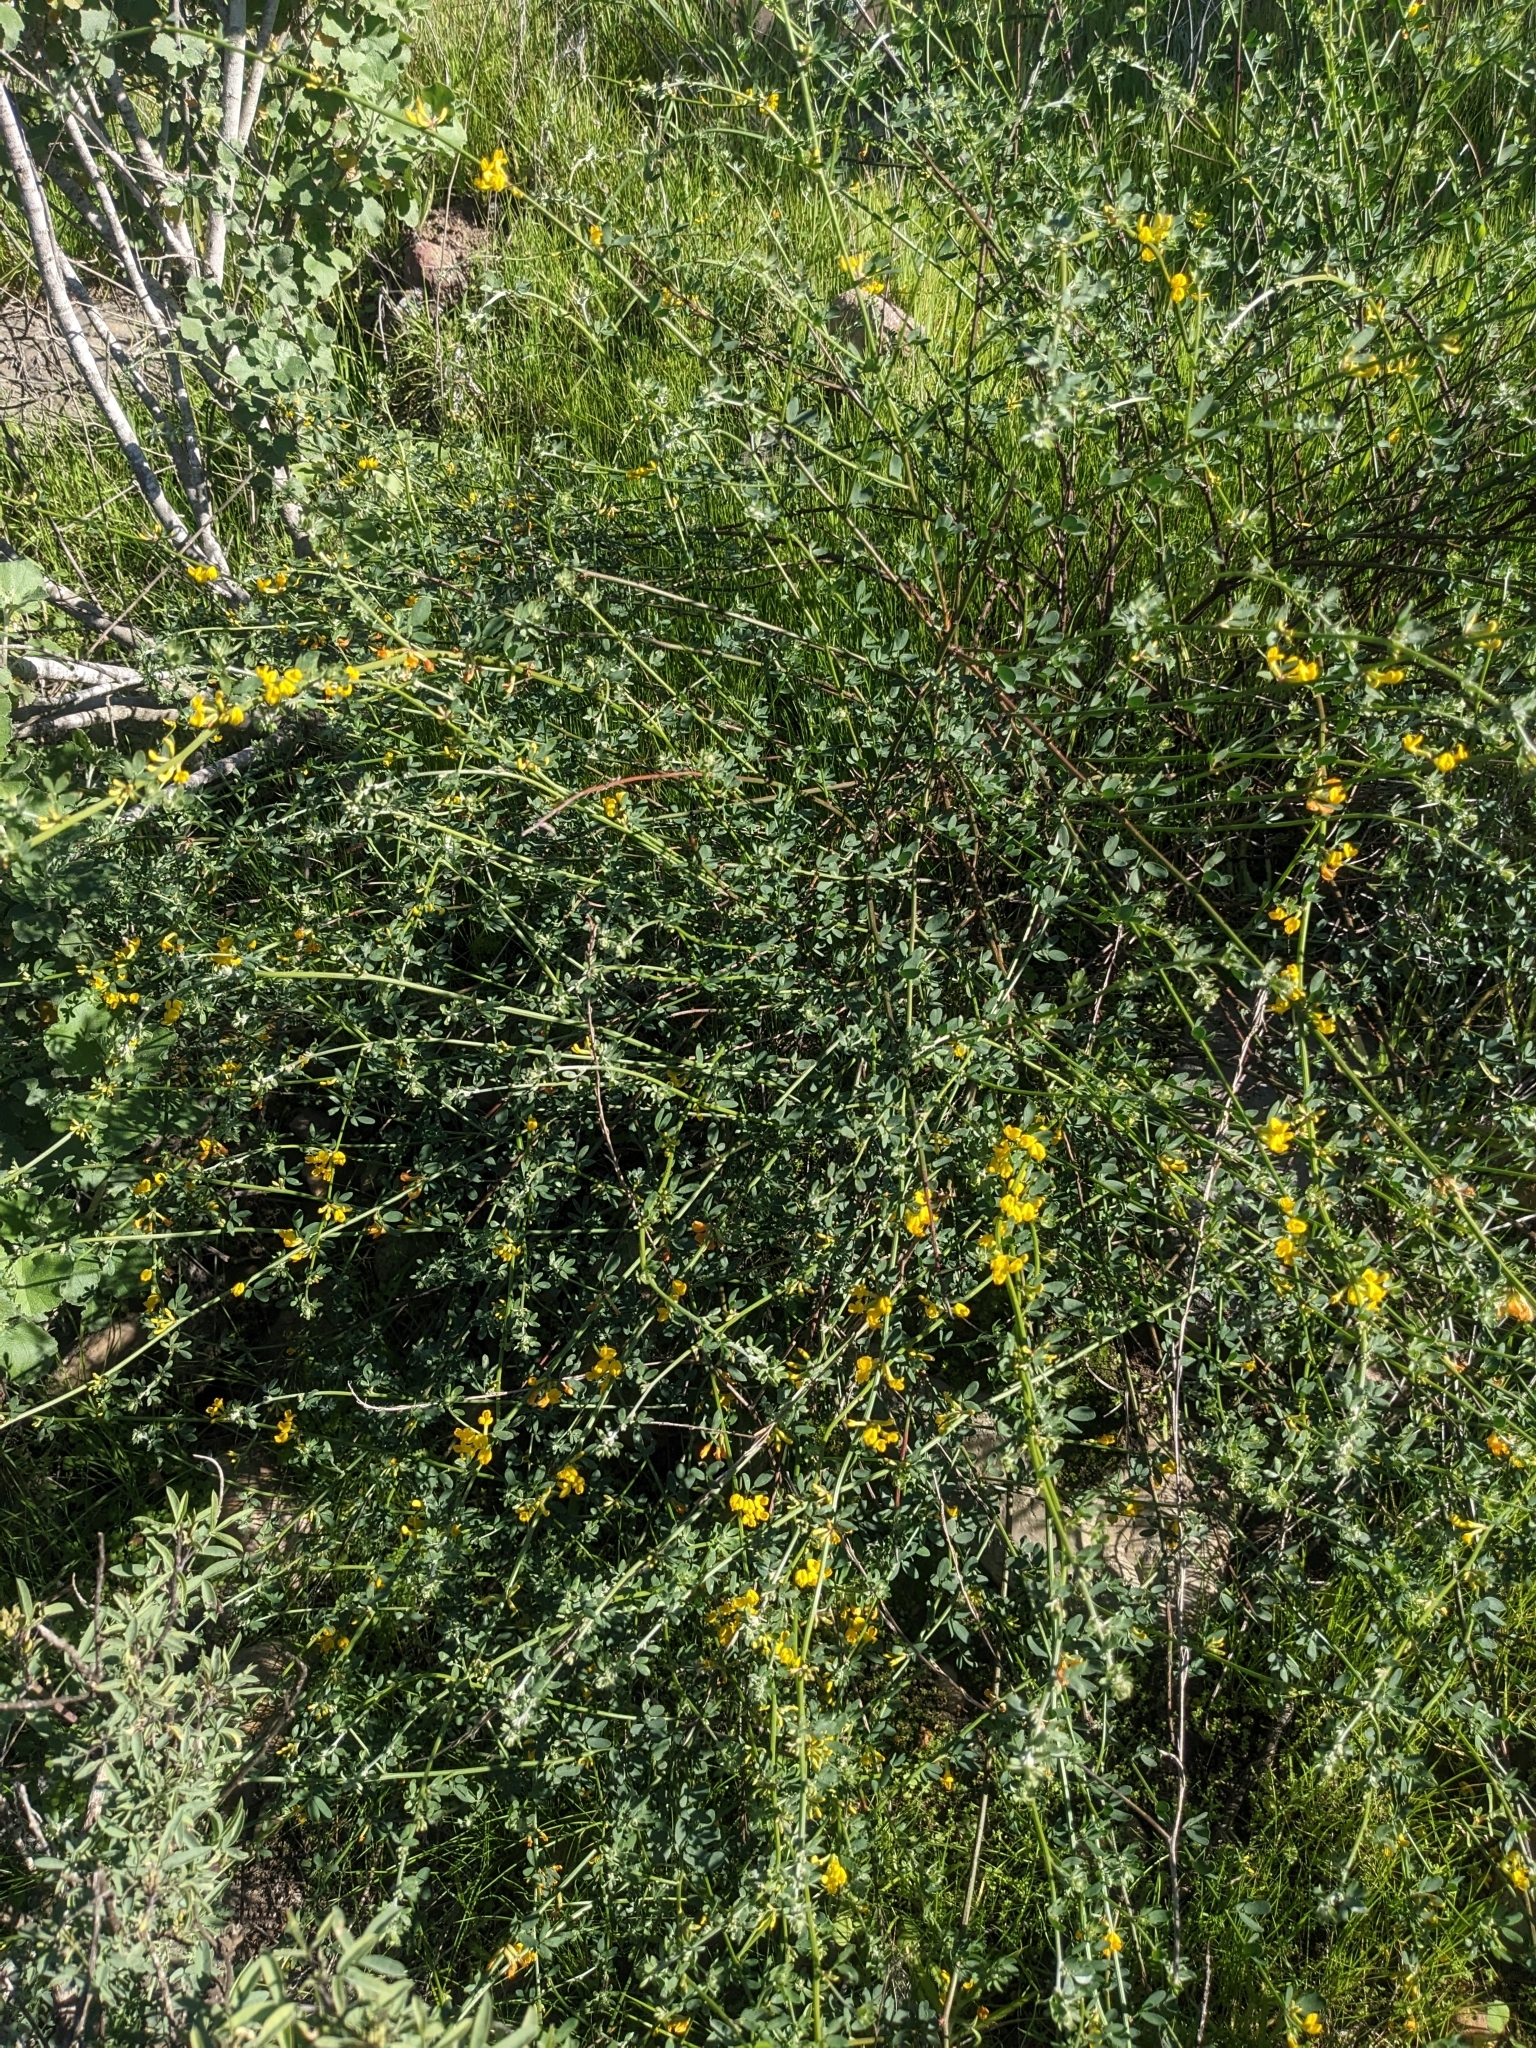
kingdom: Plantae
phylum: Tracheophyta
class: Magnoliopsida
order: Fabales
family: Fabaceae
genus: Acmispon
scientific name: Acmispon glaber
